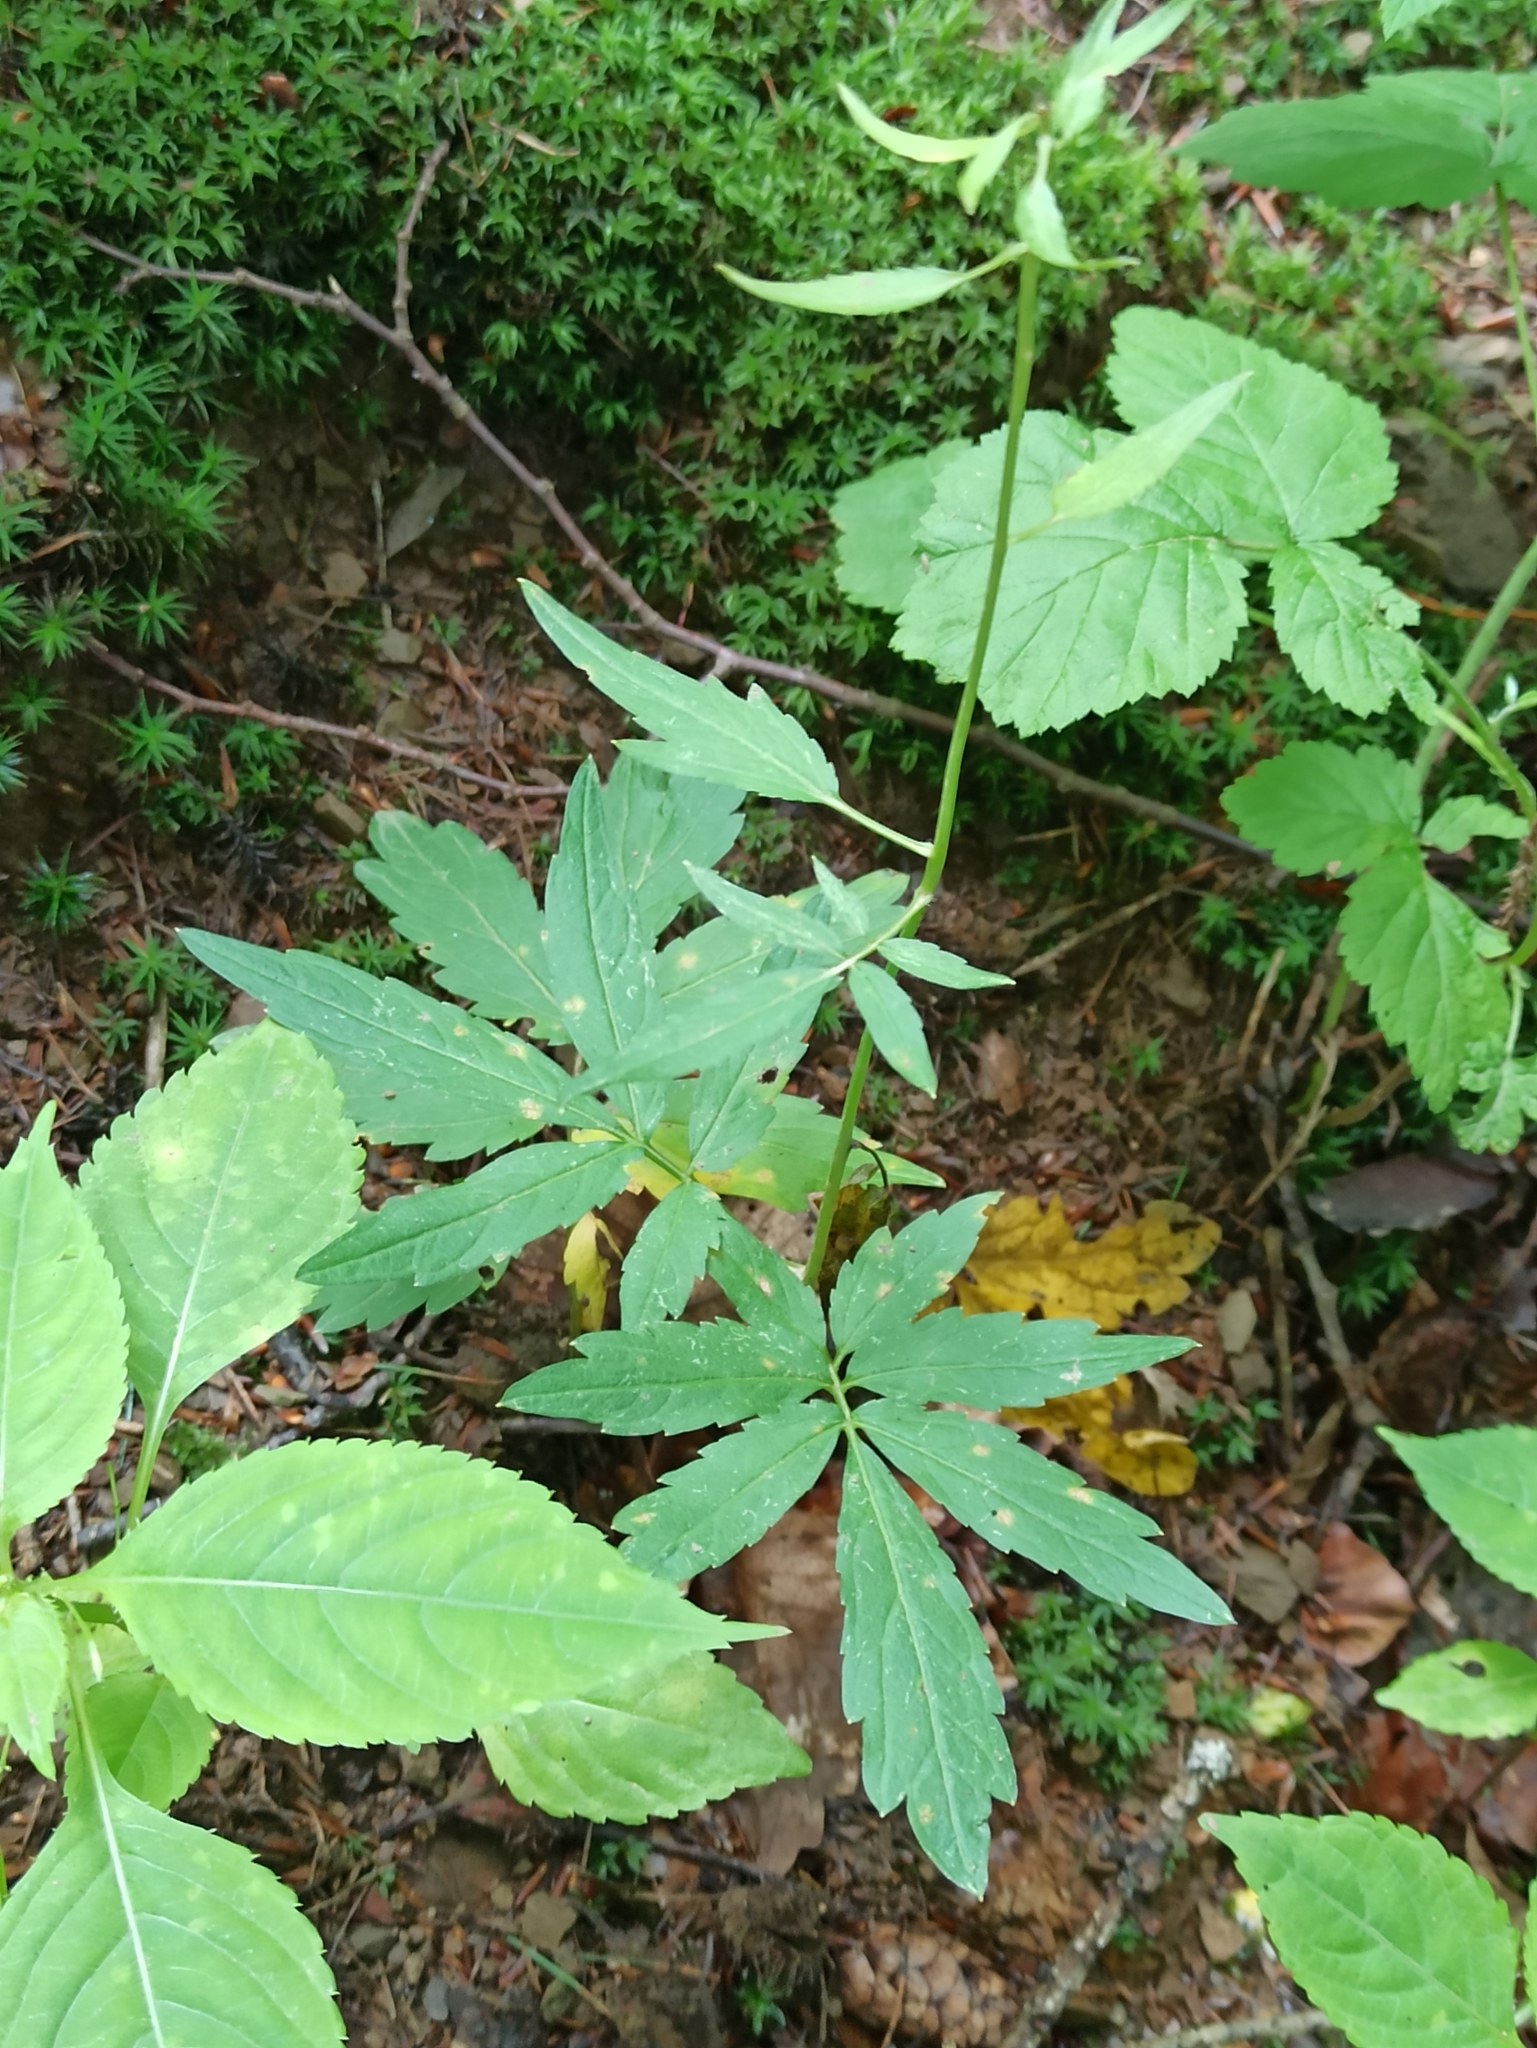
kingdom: Plantae
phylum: Tracheophyta
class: Magnoliopsida
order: Brassicales
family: Brassicaceae
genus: Cardamine
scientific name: Cardamine bulbifera
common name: Coralroot bittercress
